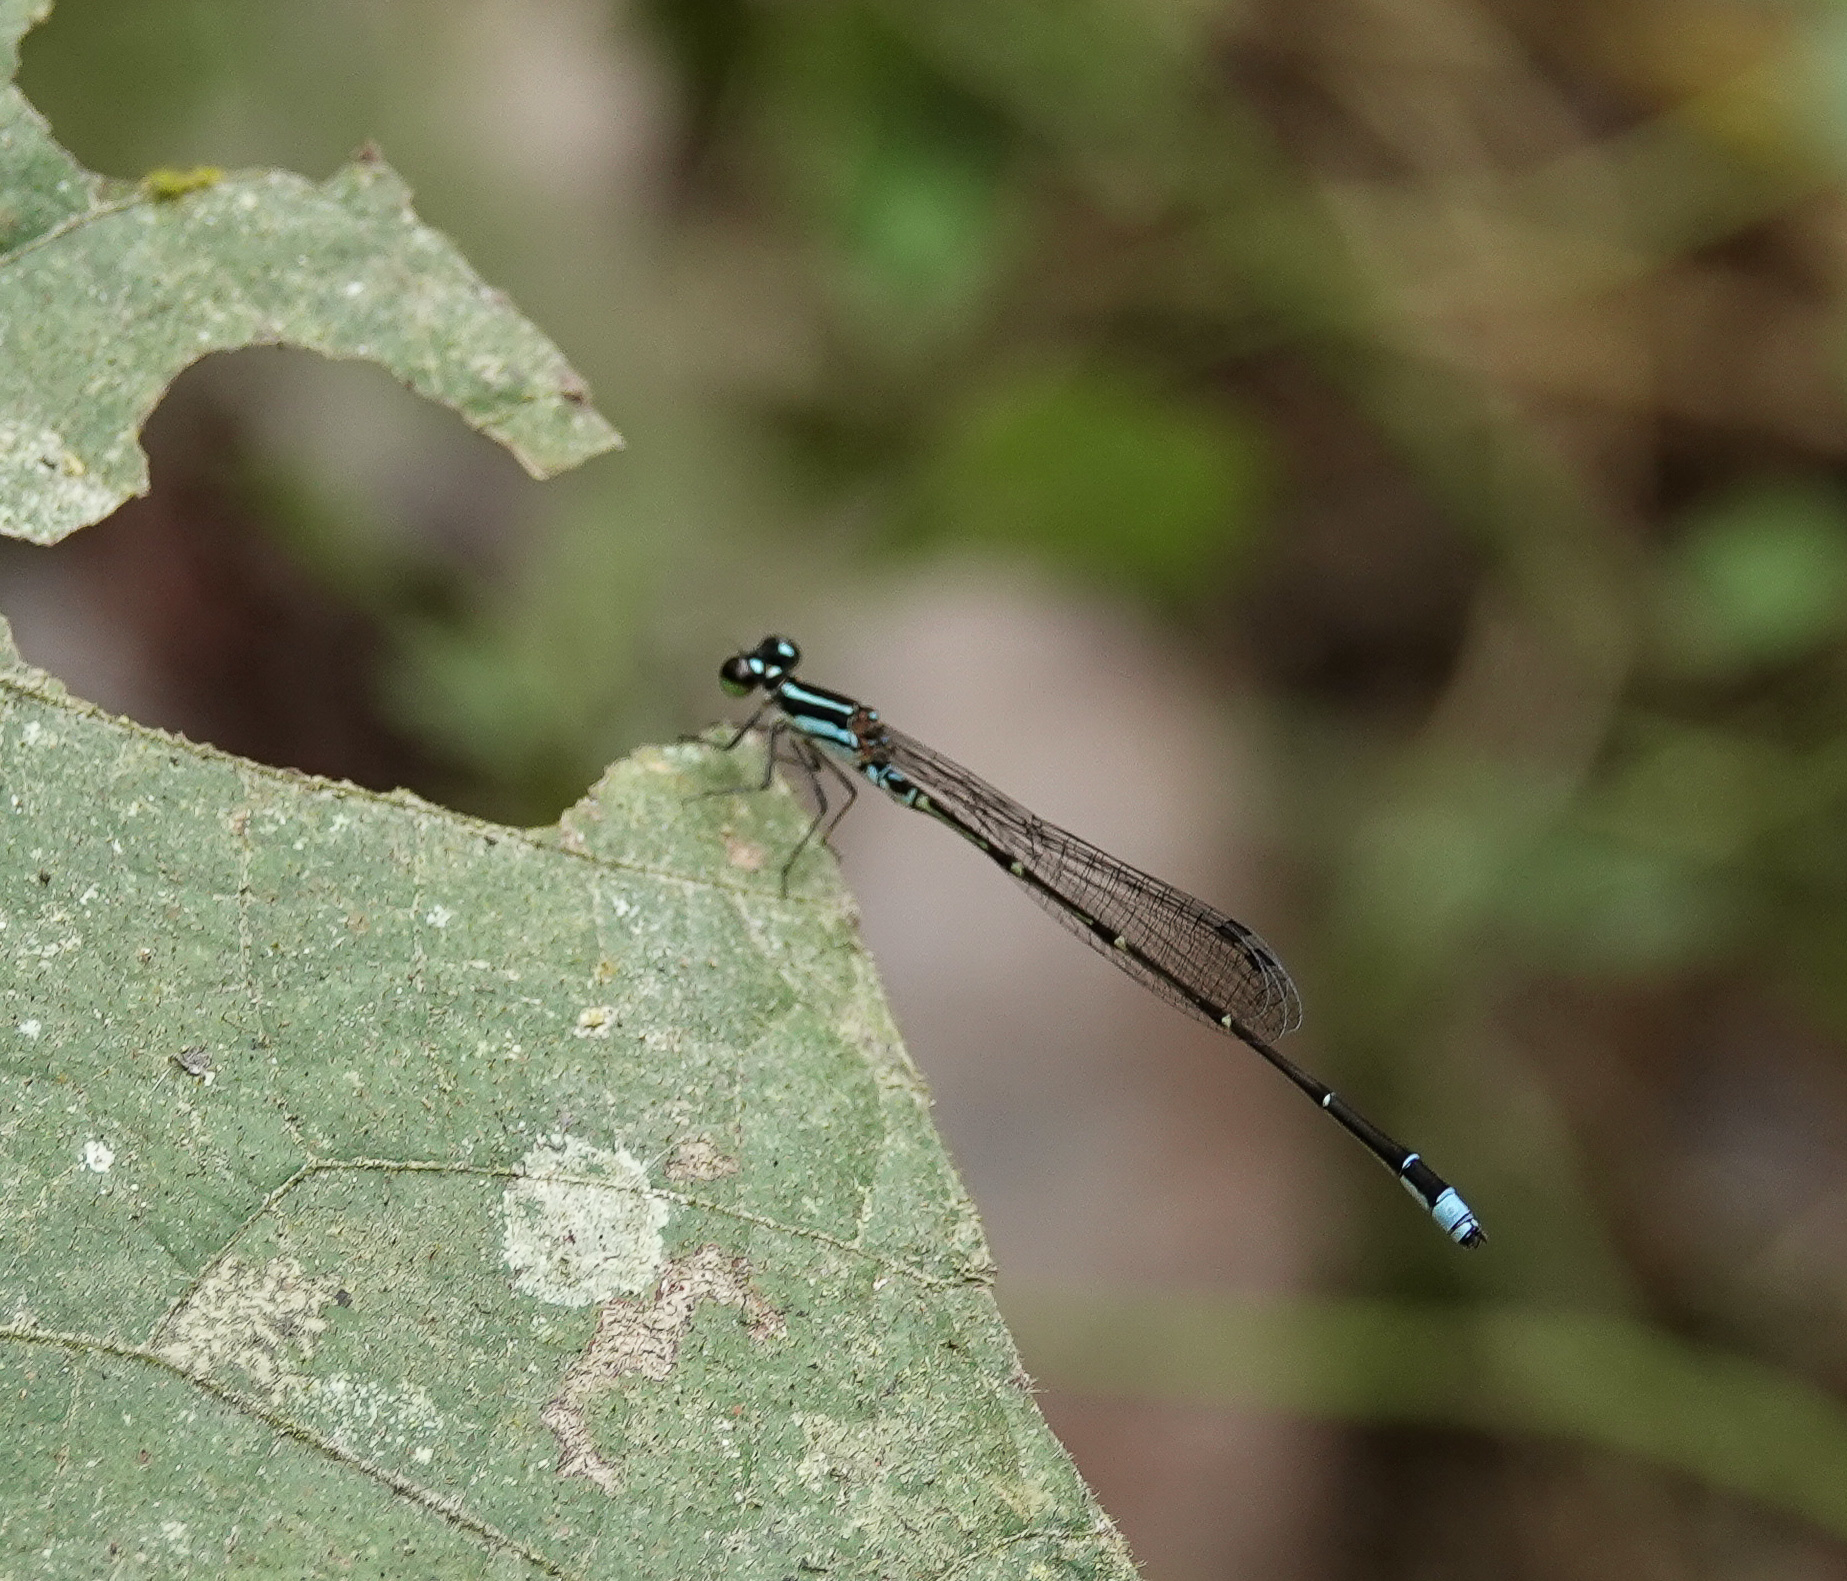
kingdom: Animalia
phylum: Arthropoda
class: Insecta
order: Odonata
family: Coenagrionidae
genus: Mortonagrion
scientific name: Mortonagrion aborense
